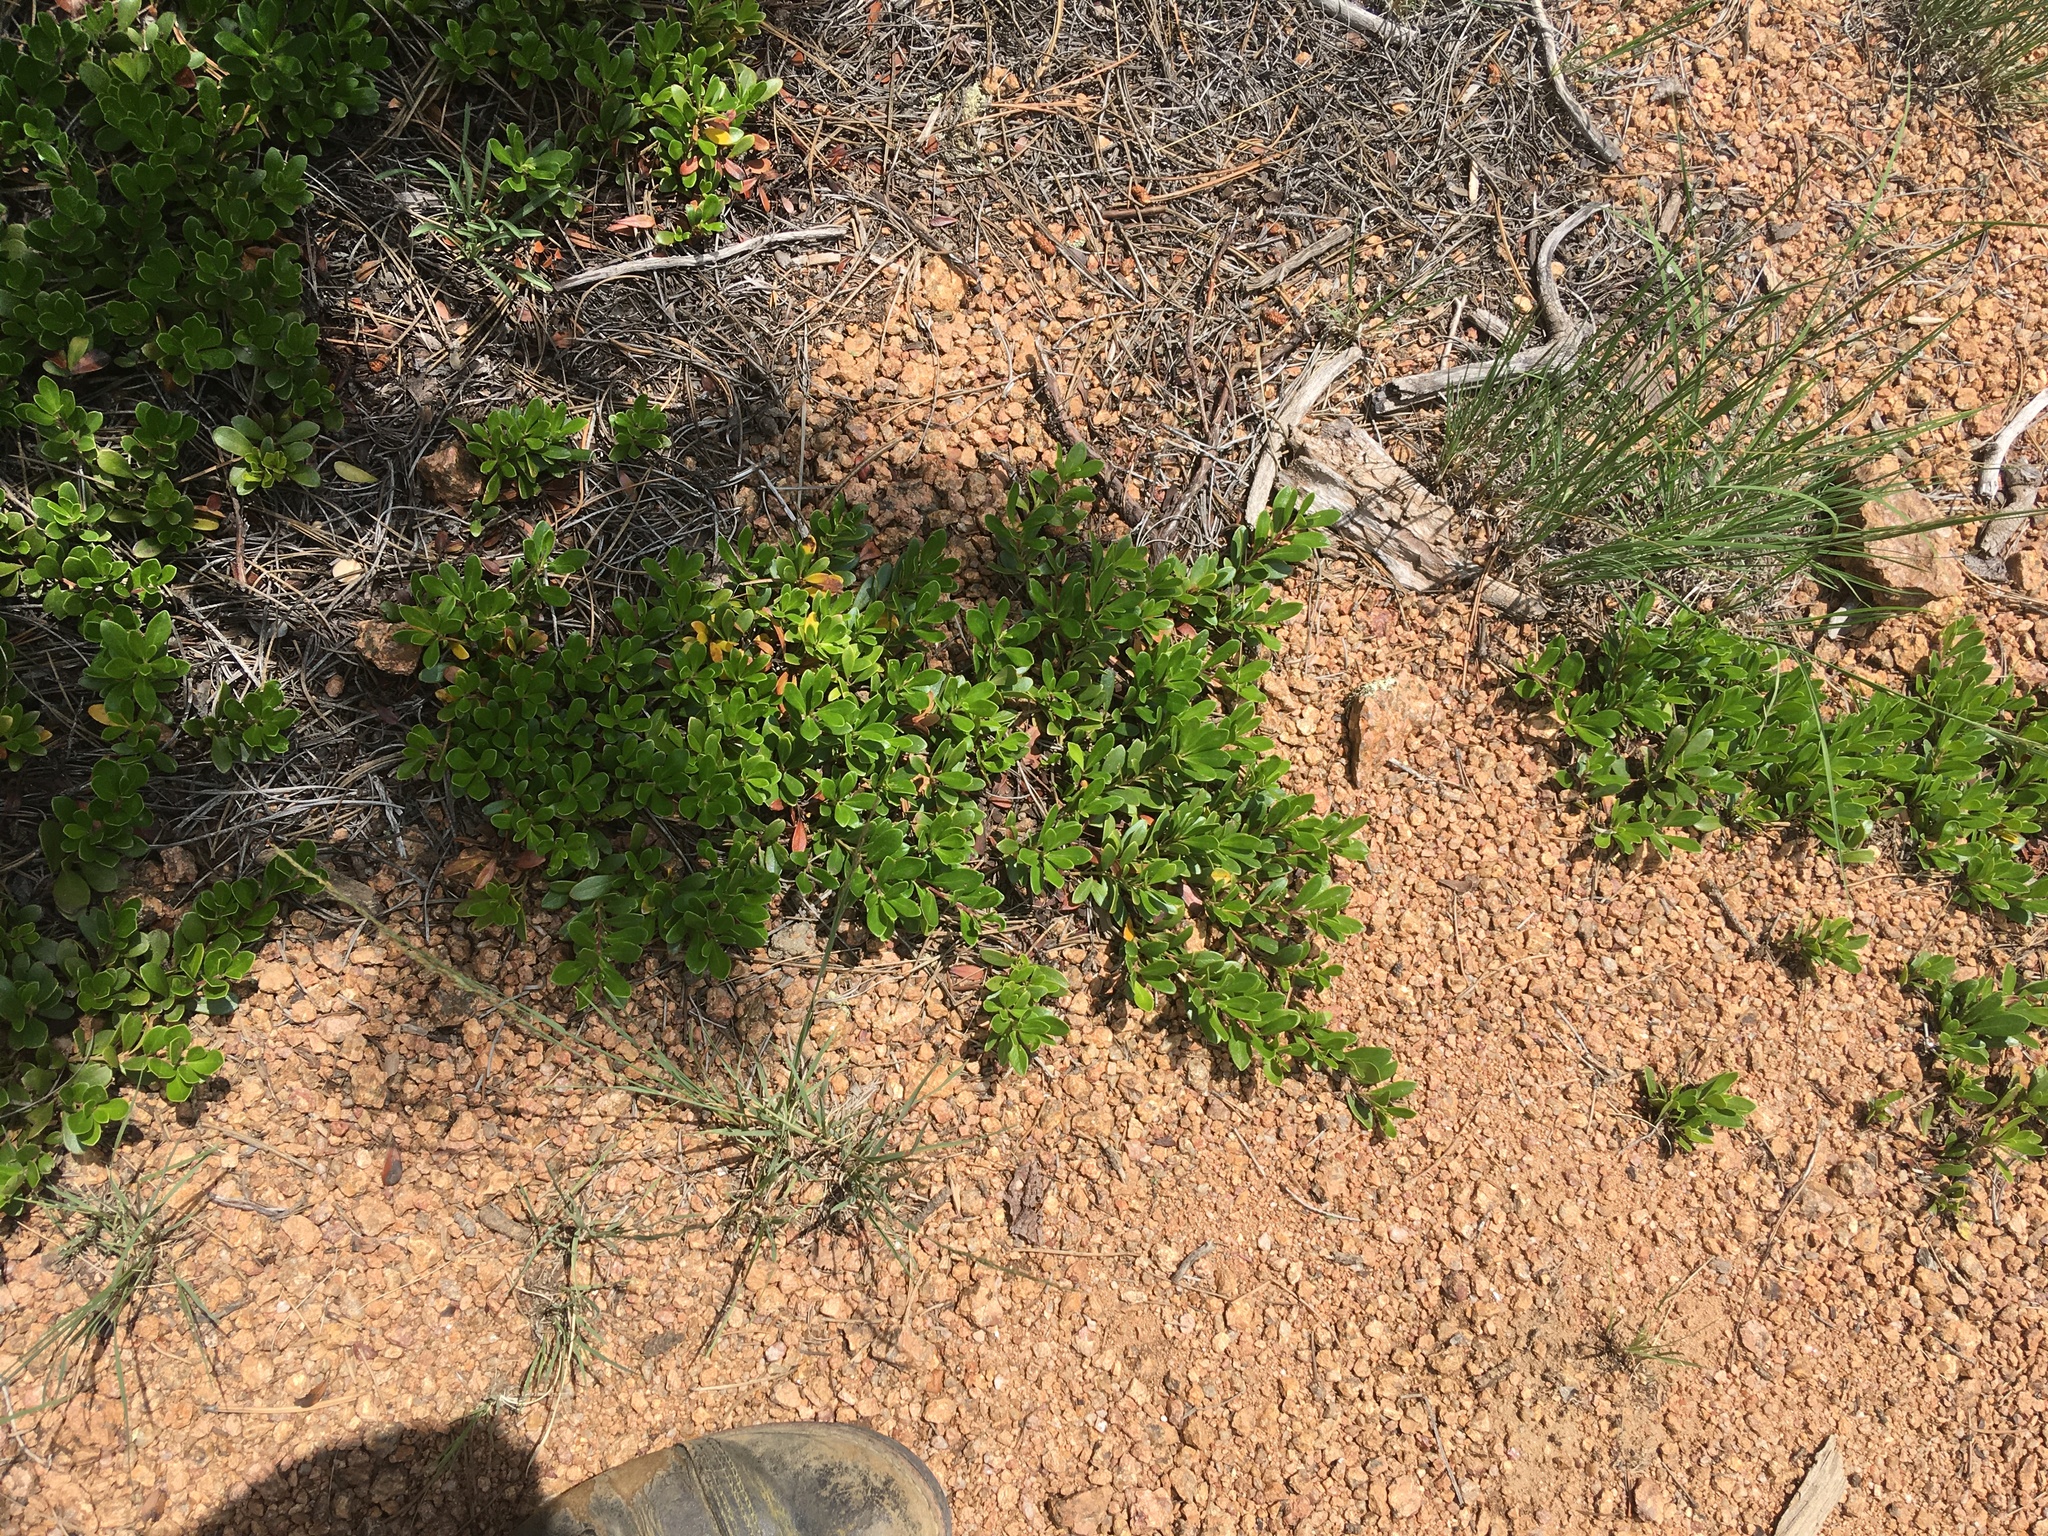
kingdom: Plantae
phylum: Tracheophyta
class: Magnoliopsida
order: Ericales
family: Ericaceae
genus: Arctostaphylos
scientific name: Arctostaphylos uva-ursi
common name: Bearberry
